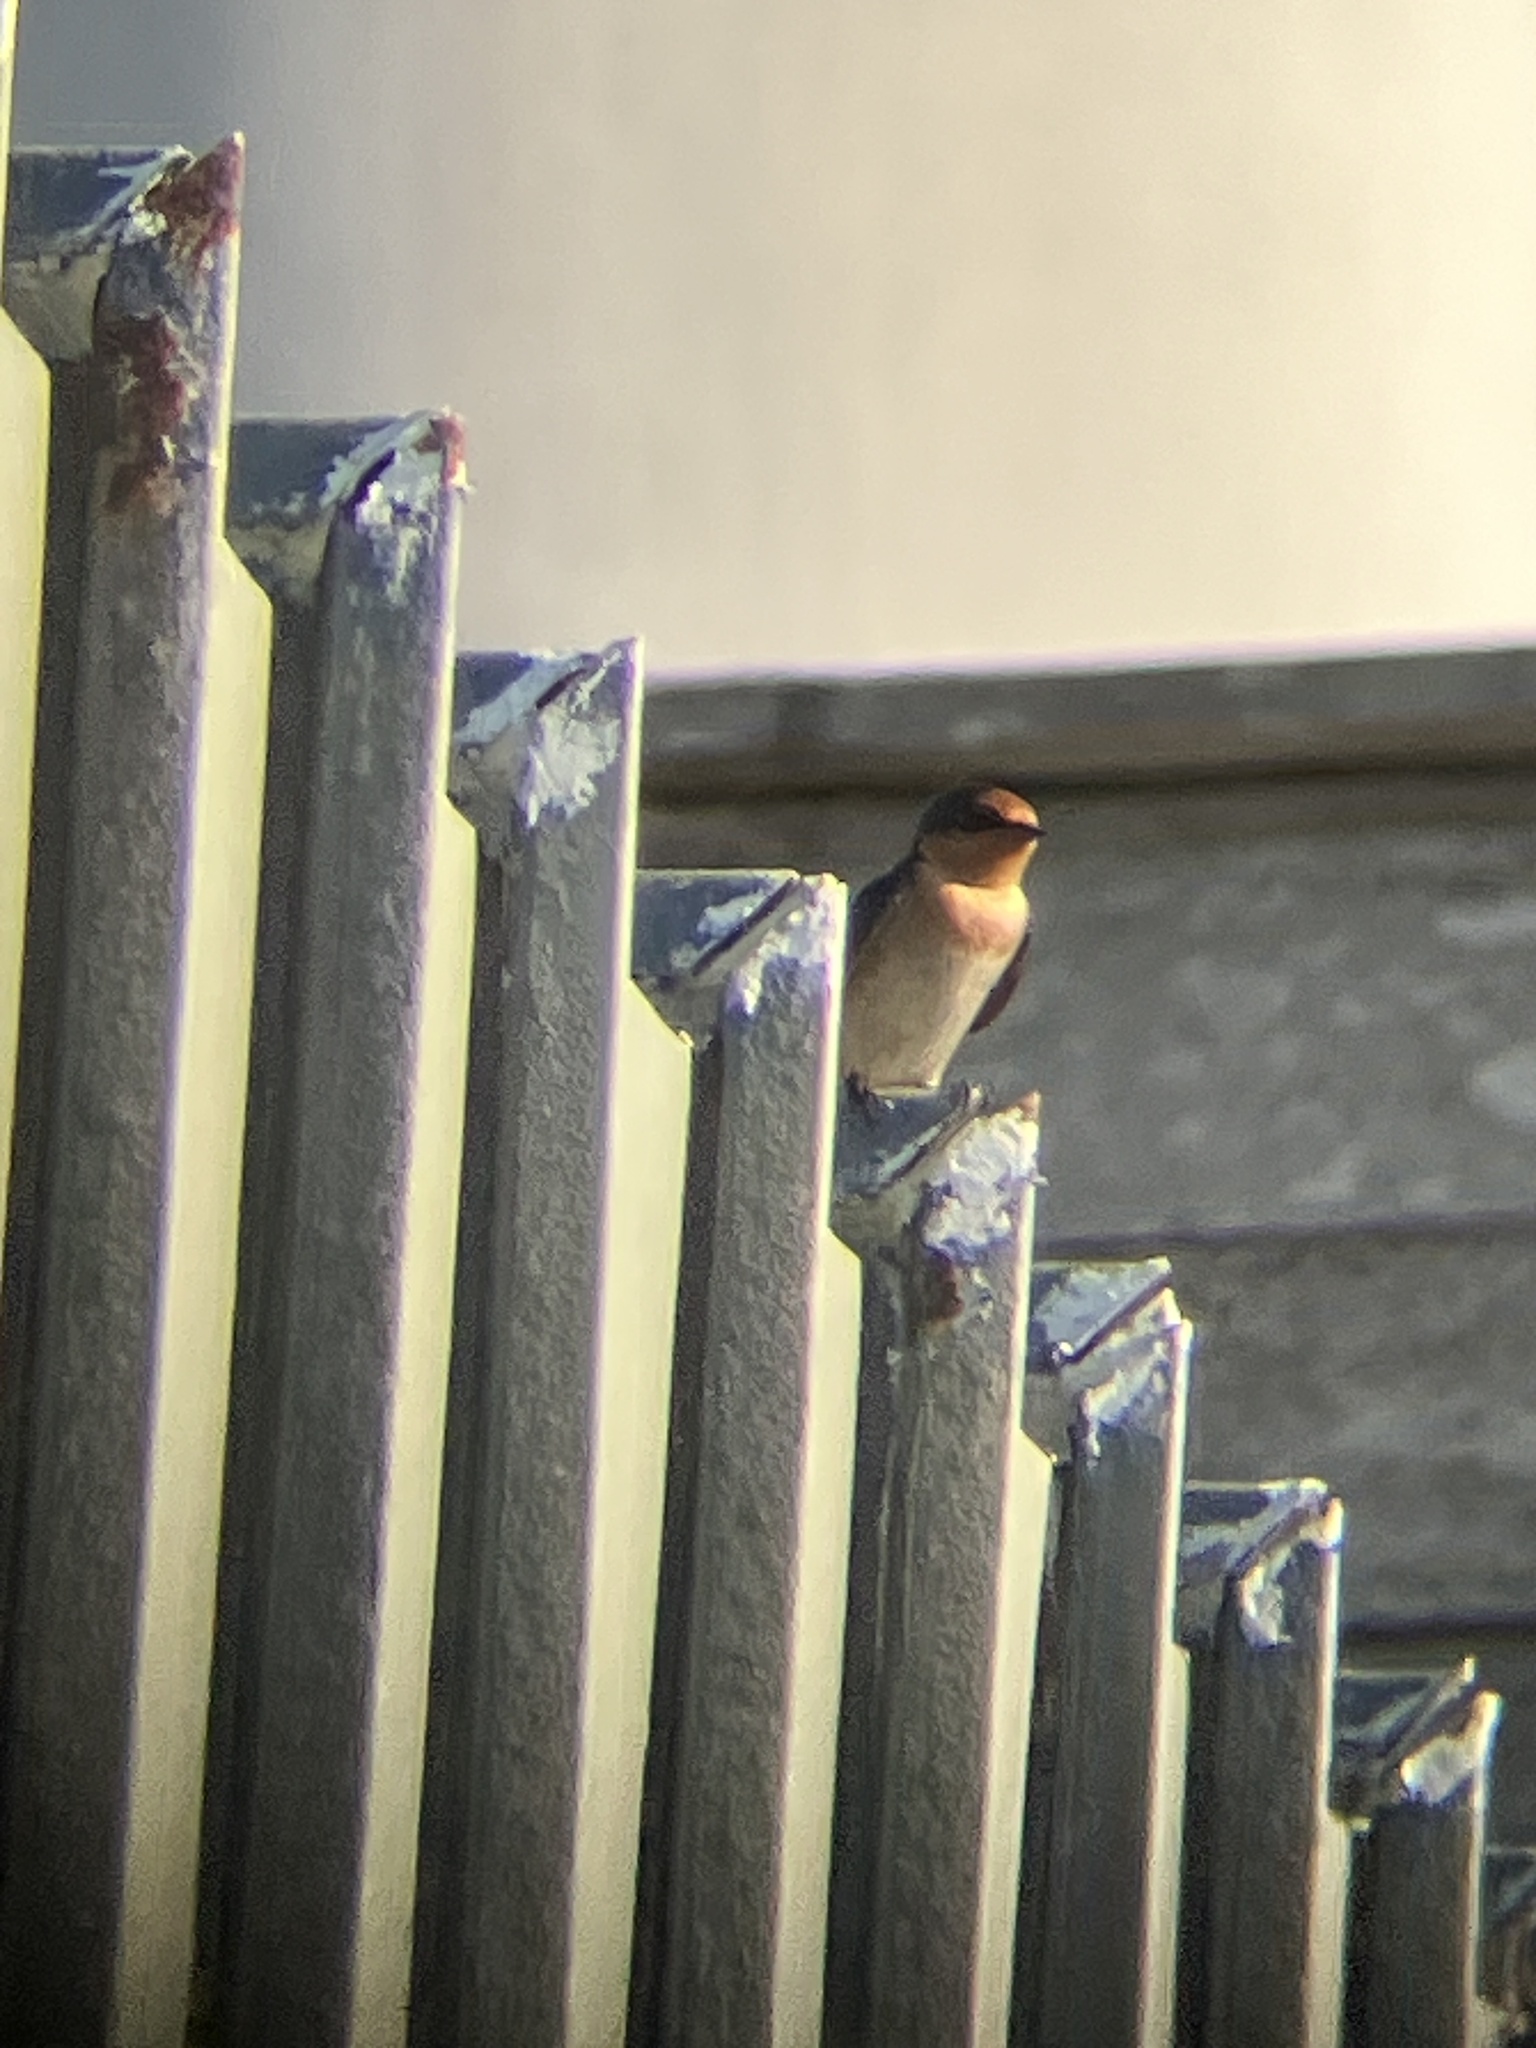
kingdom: Animalia
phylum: Chordata
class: Aves
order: Passeriformes
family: Hirundinidae
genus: Hirundo
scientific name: Hirundo tahitica
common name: Pacific swallow
